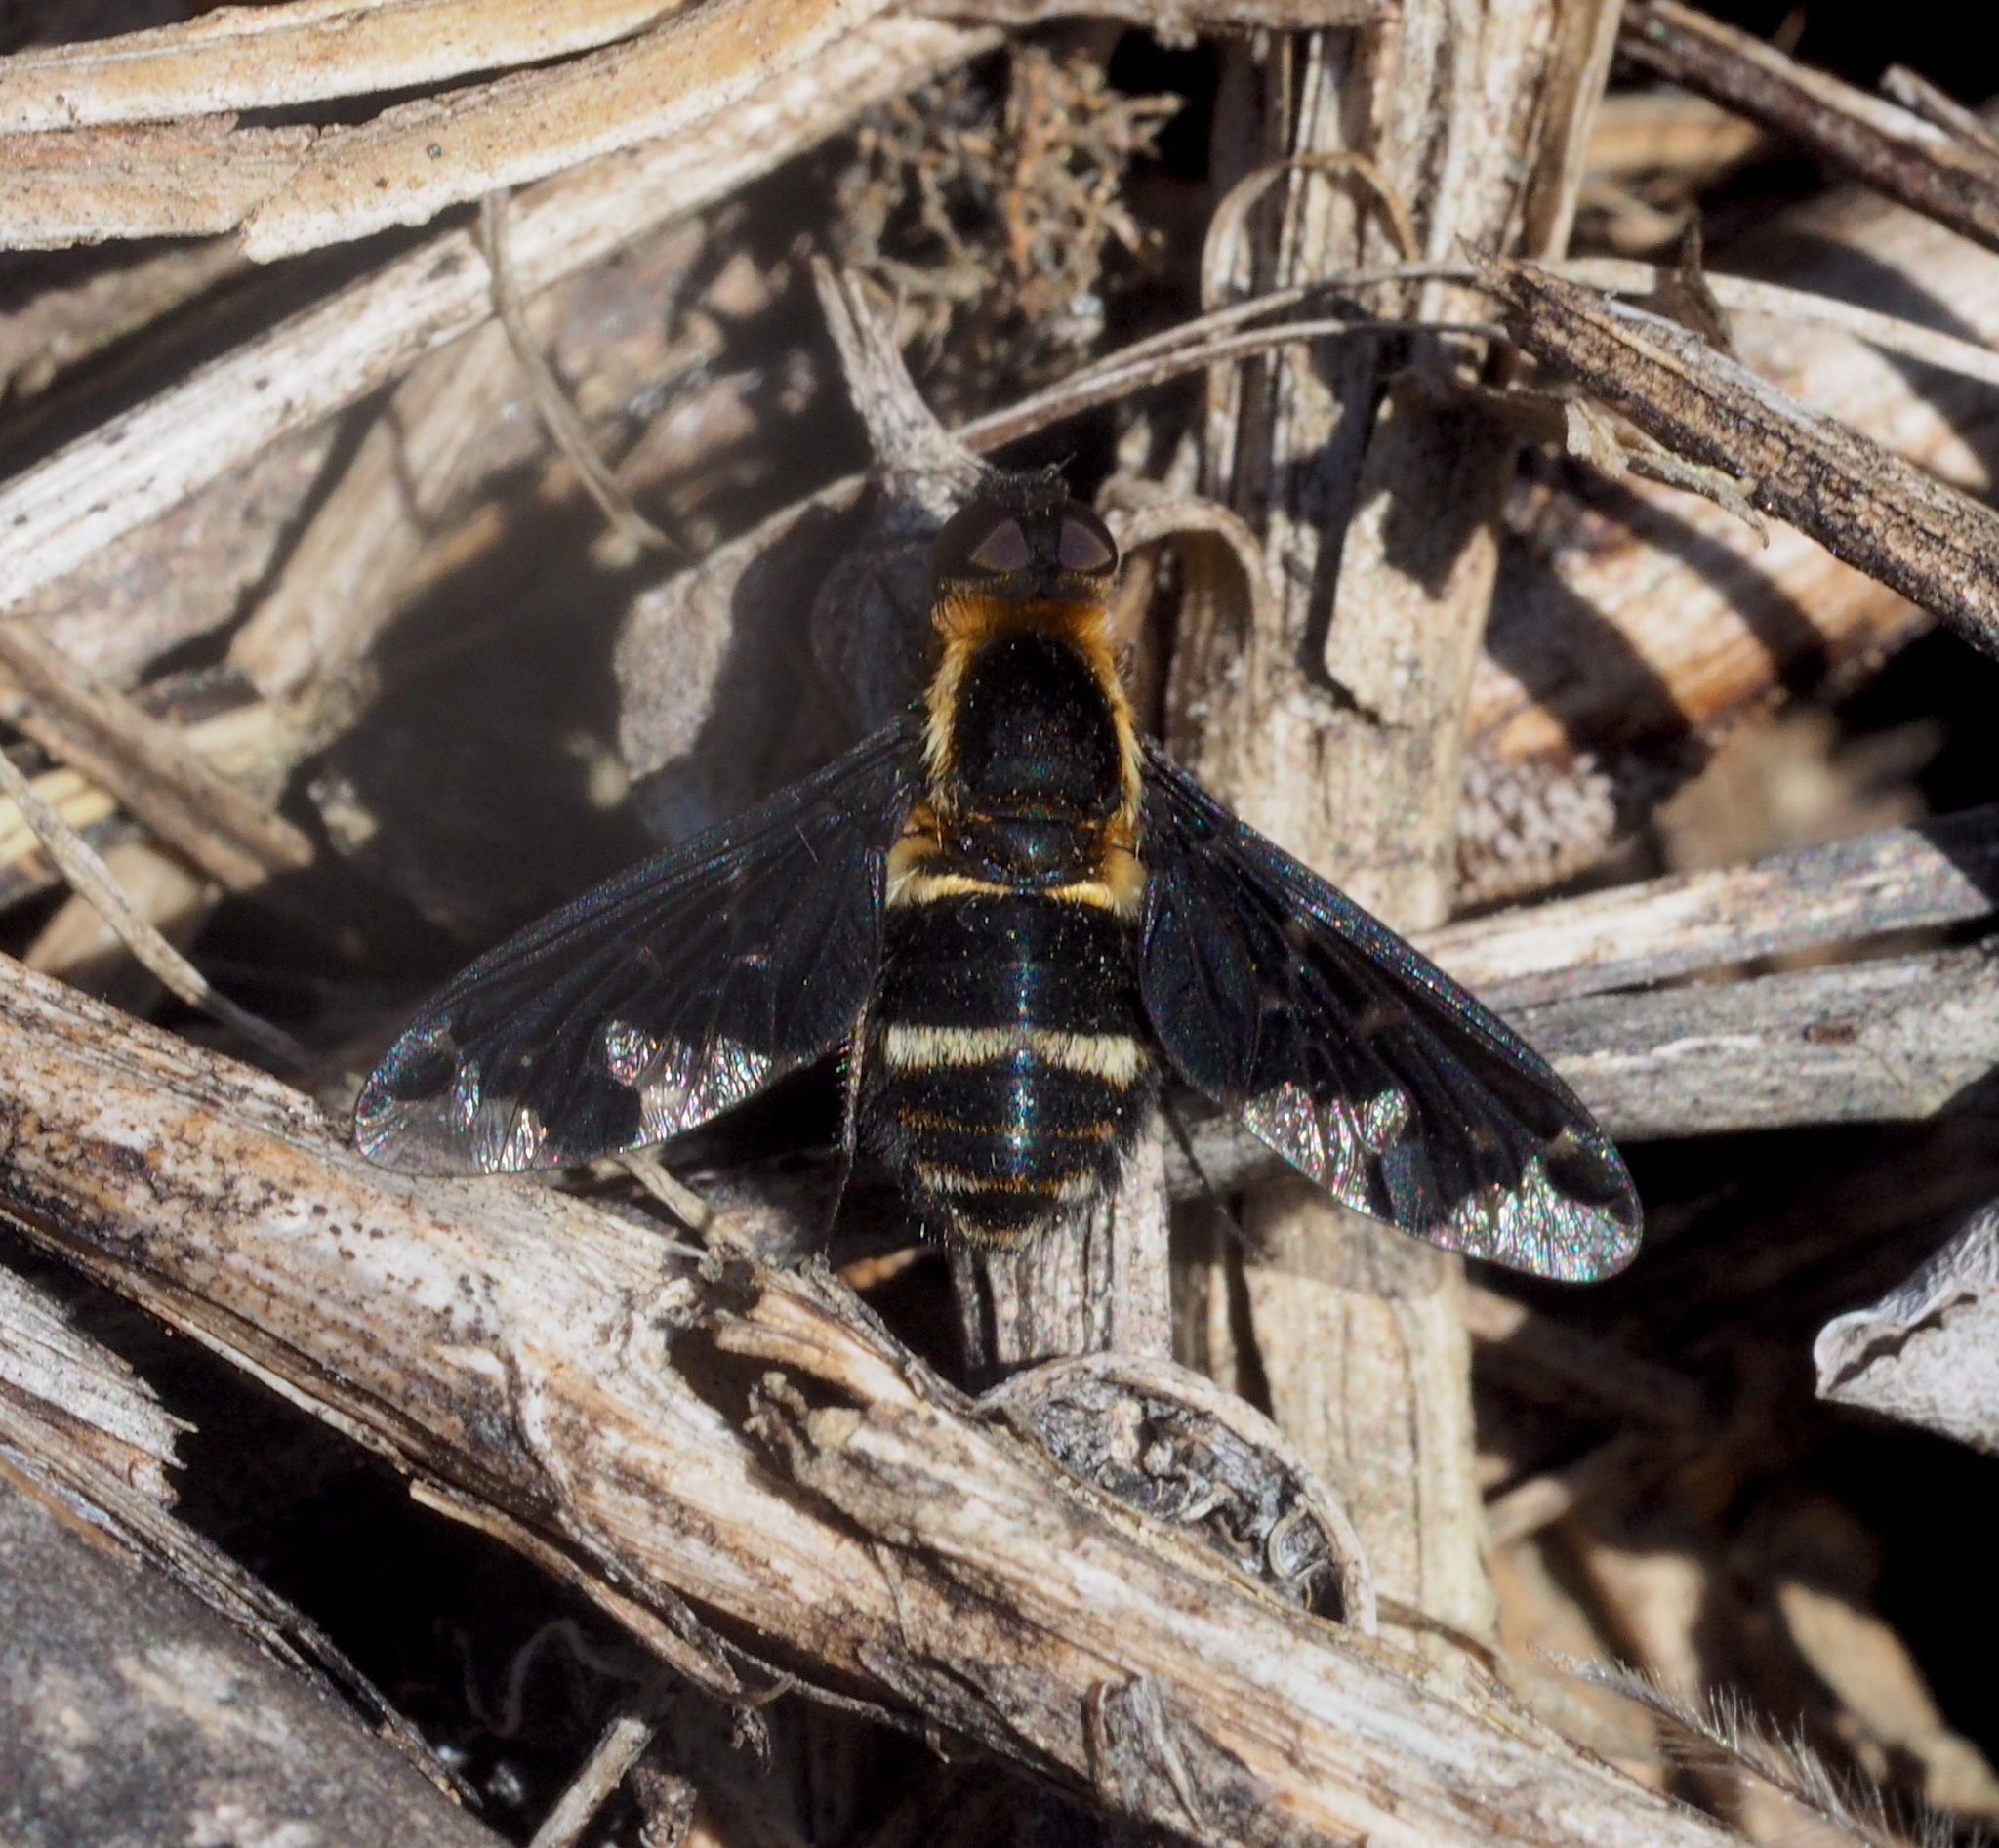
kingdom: Animalia
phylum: Arthropoda
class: Insecta
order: Diptera
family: Bombyliidae
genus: Hemipenthes
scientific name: Hemipenthes maura
